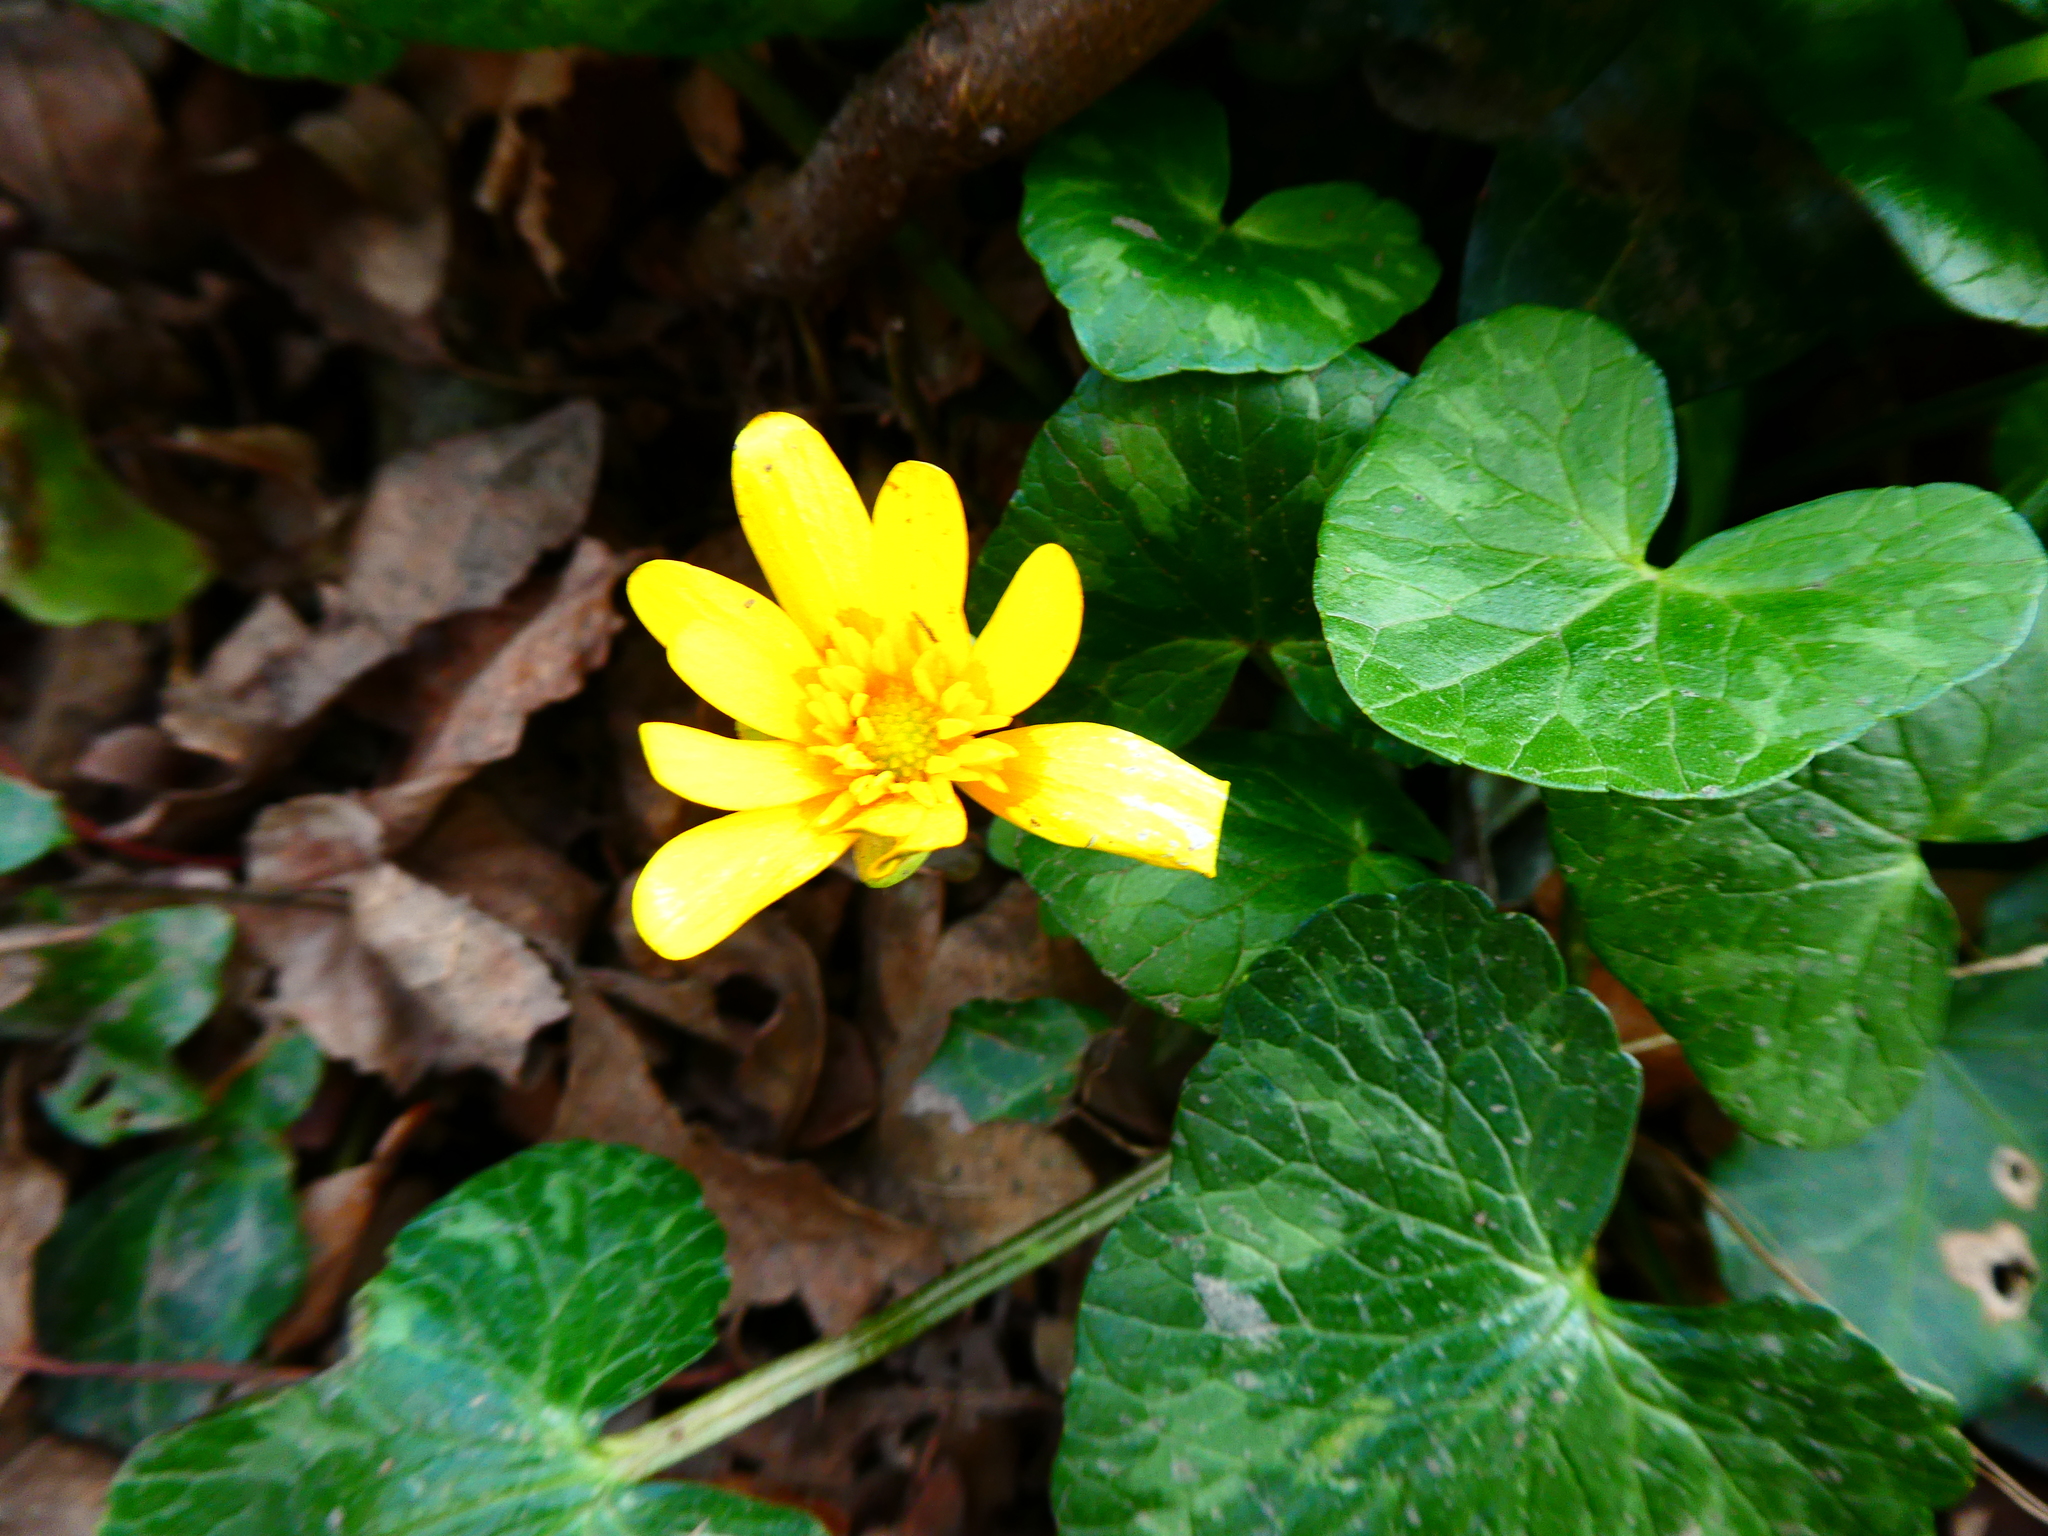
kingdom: Plantae
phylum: Tracheophyta
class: Magnoliopsida
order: Ranunculales
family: Ranunculaceae
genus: Ficaria
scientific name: Ficaria verna
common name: Lesser celandine
